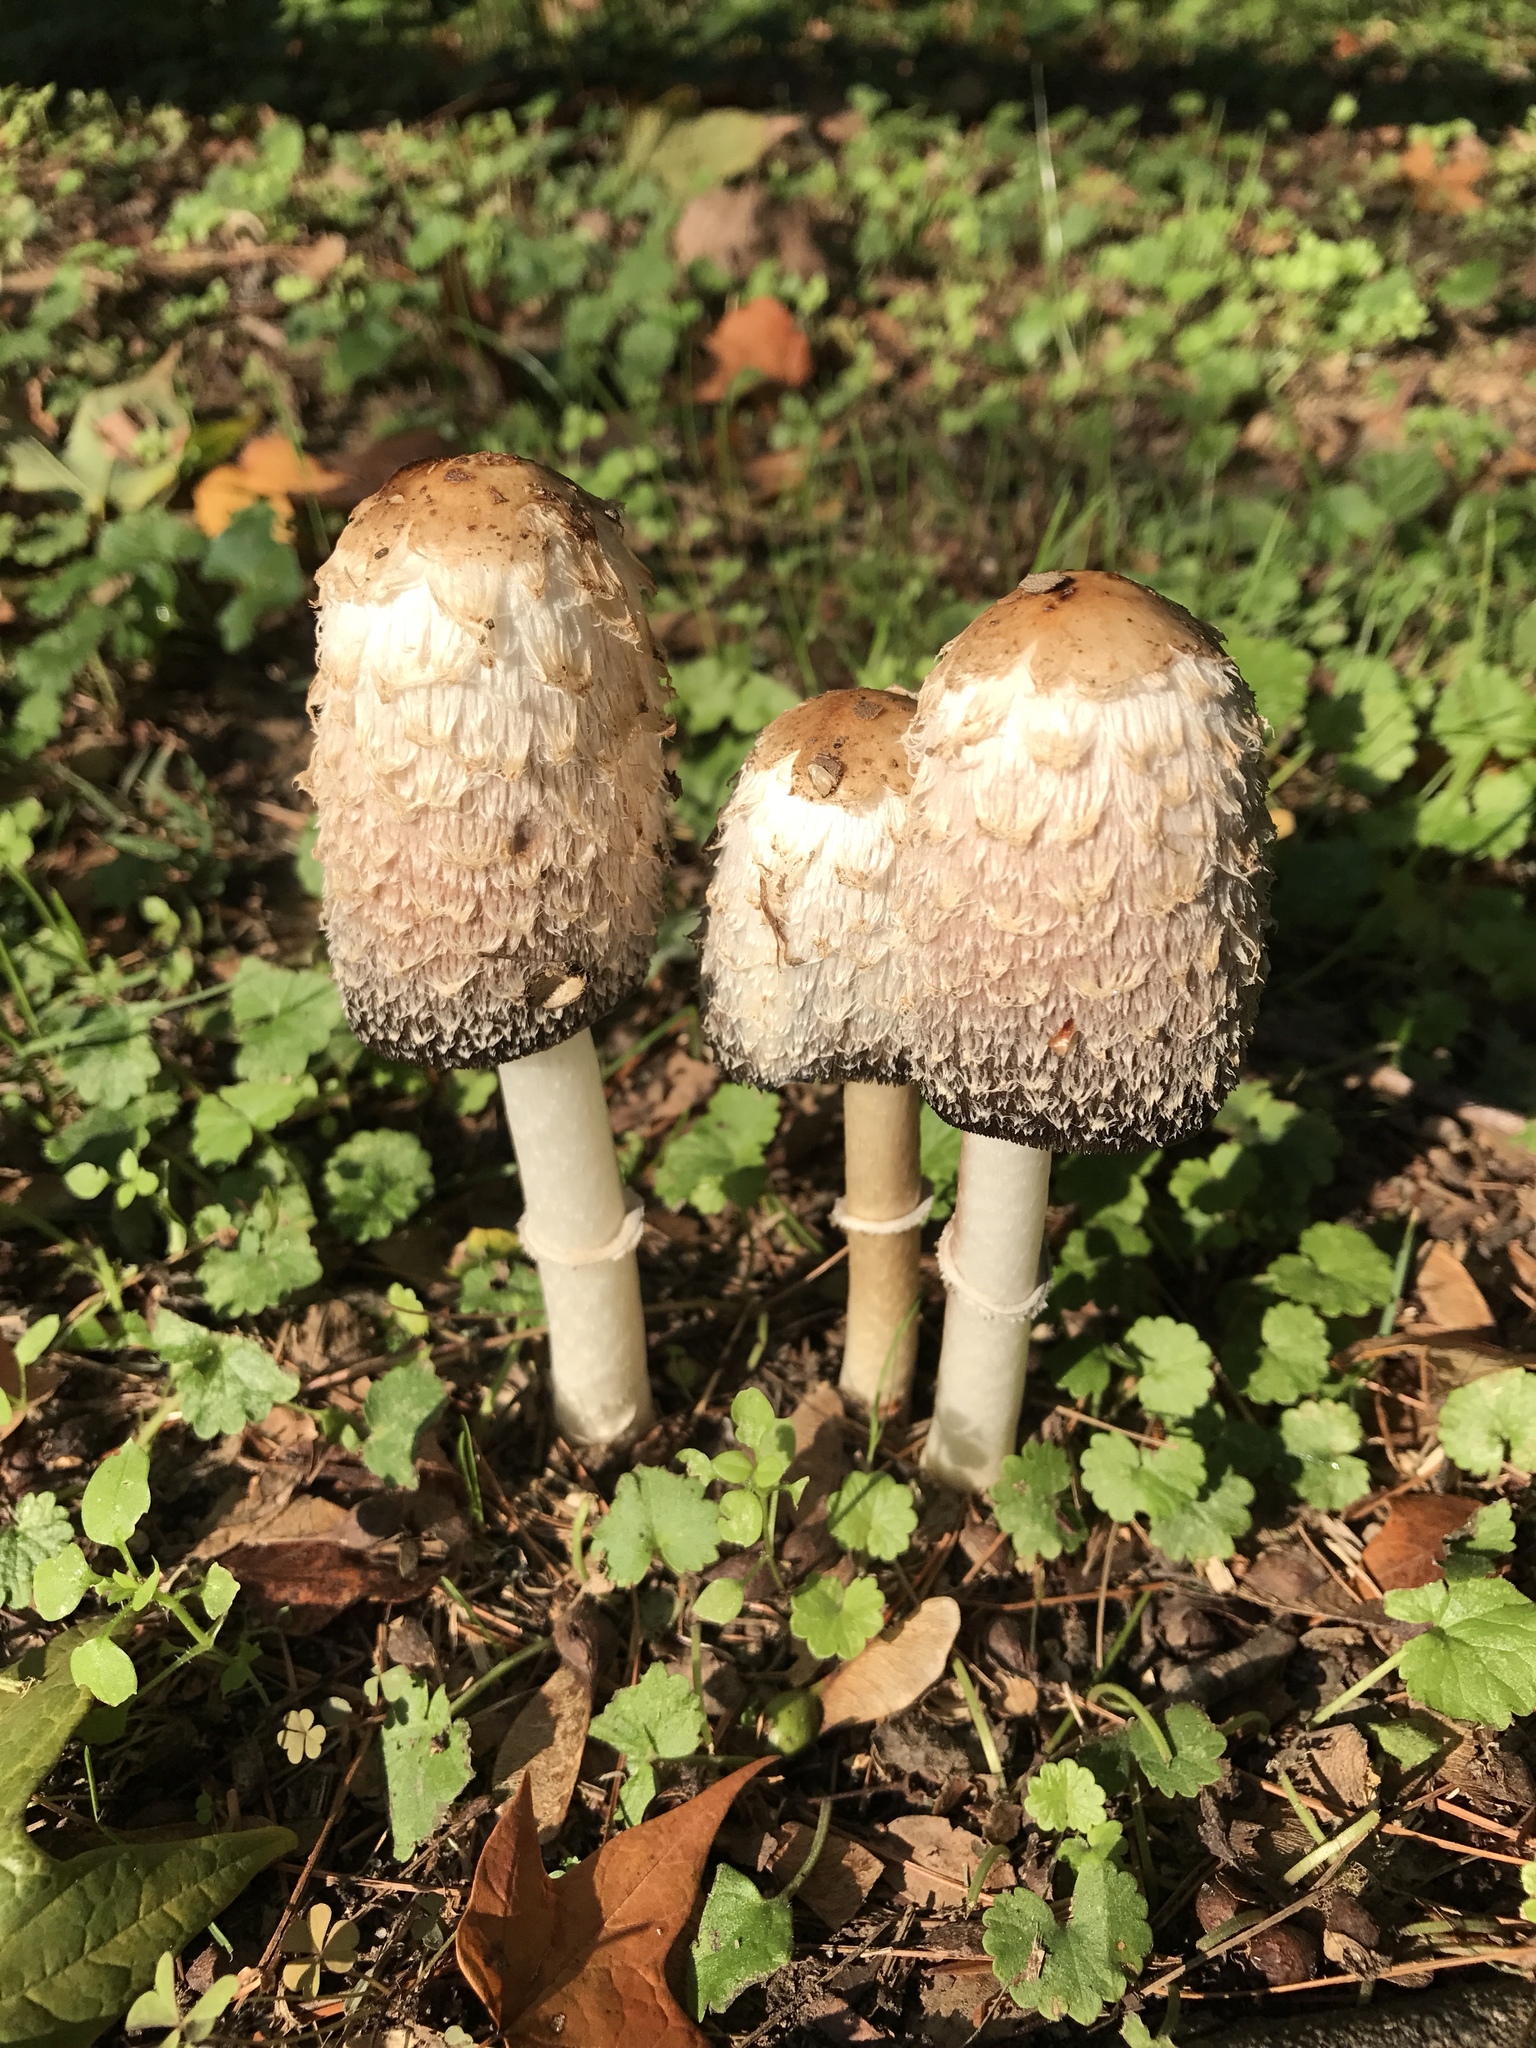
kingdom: Fungi
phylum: Basidiomycota
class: Agaricomycetes
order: Agaricales
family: Agaricaceae
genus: Coprinus
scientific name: Coprinus comatus
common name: Lawyer's wig
